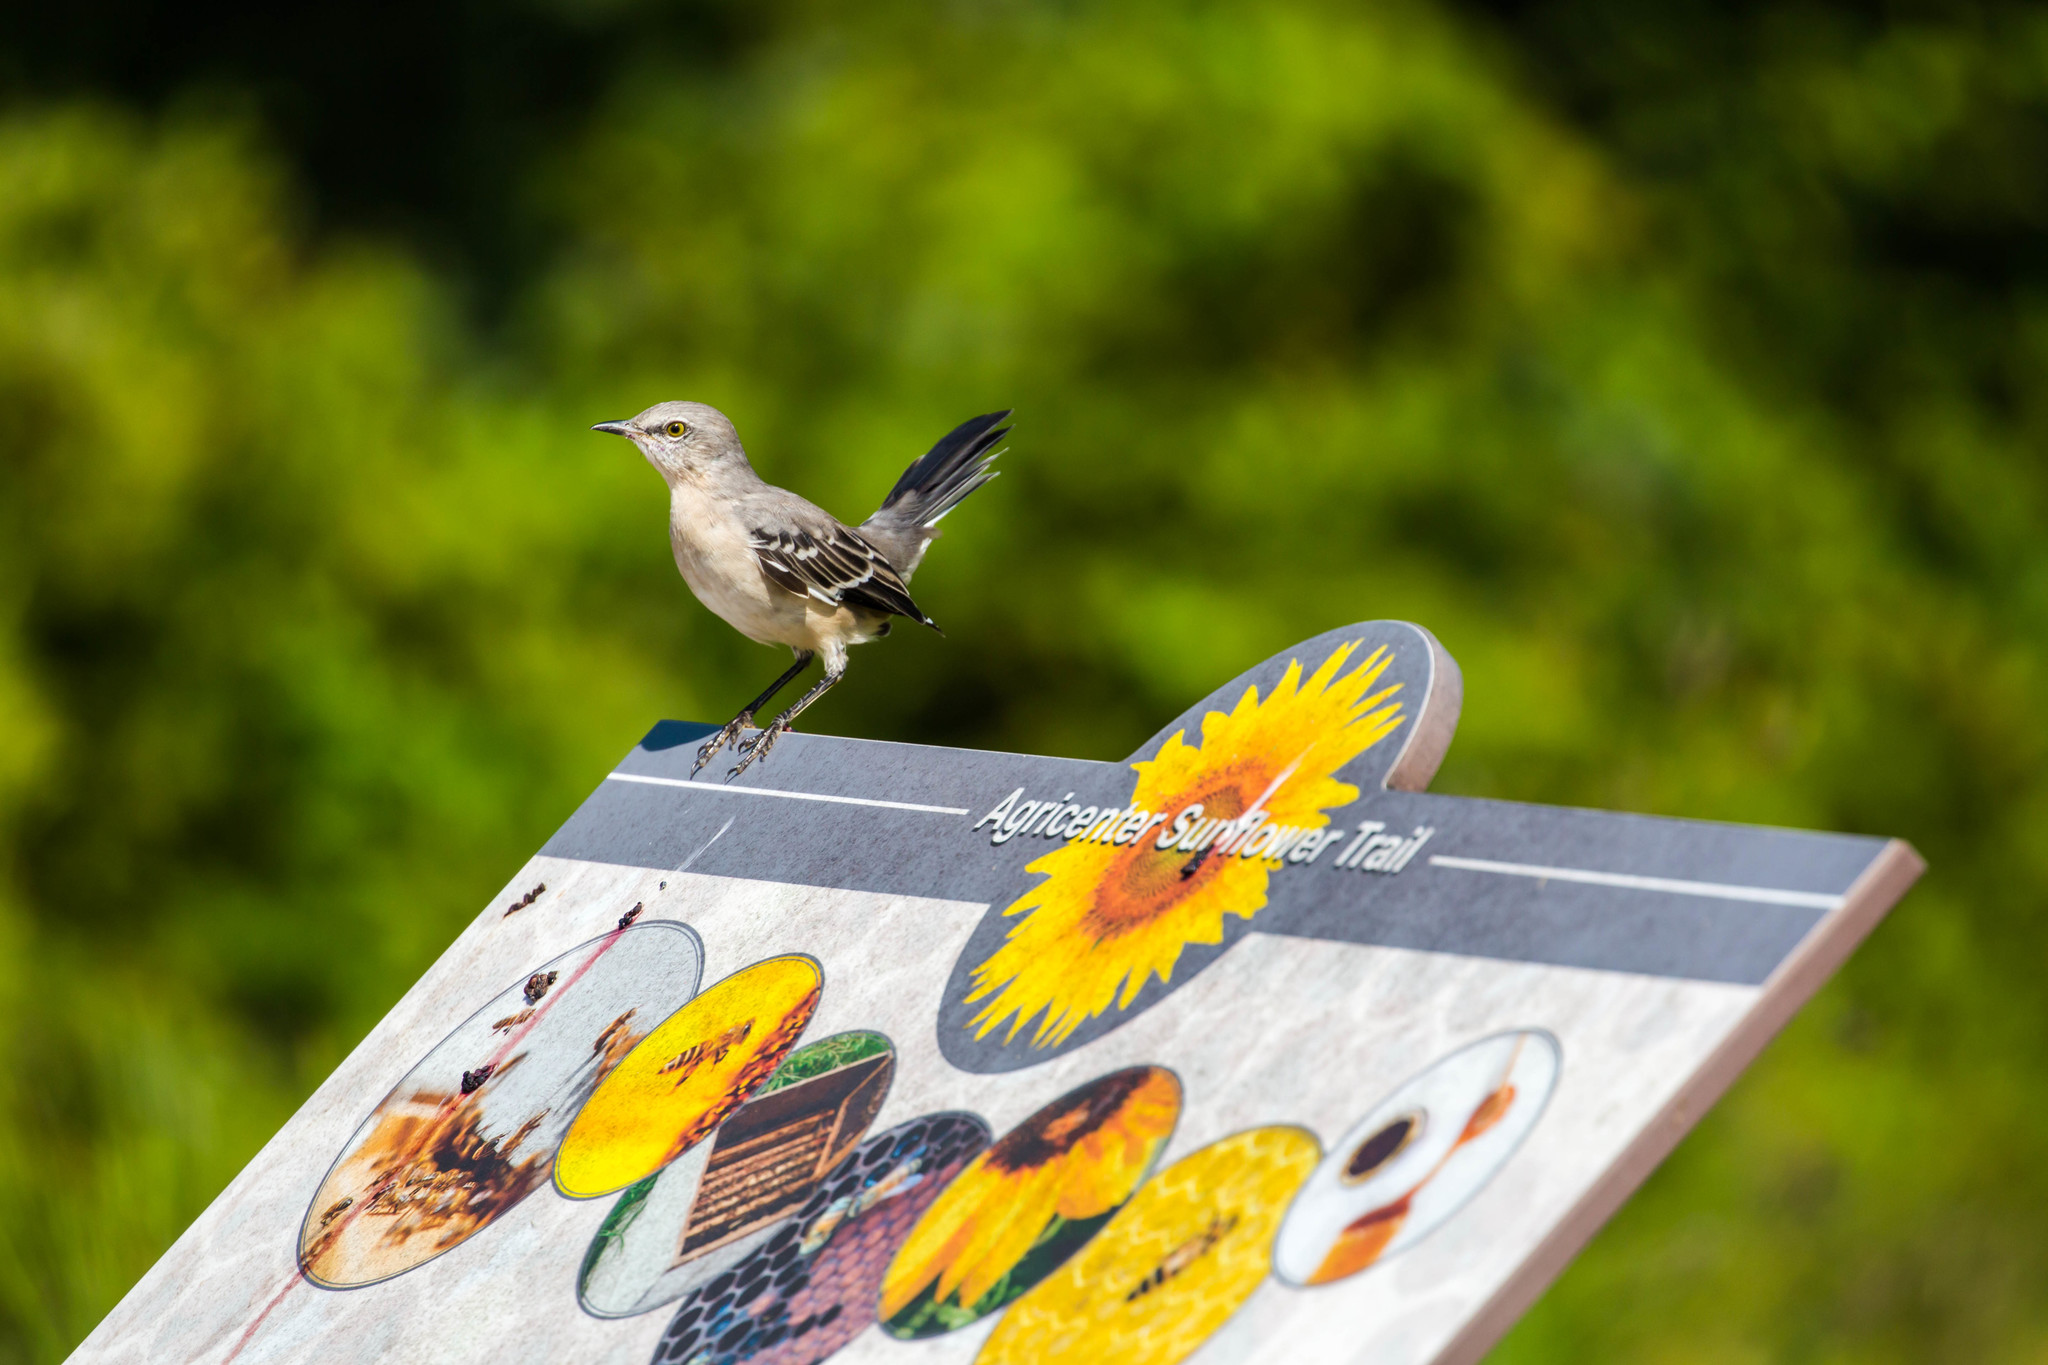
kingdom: Animalia
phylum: Chordata
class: Aves
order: Passeriformes
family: Mimidae
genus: Mimus
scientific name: Mimus polyglottos
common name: Northern mockingbird
